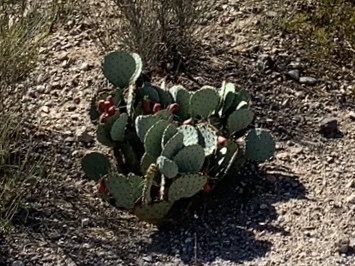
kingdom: Plantae
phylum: Tracheophyta
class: Magnoliopsida
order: Caryophyllales
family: Cactaceae
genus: Opuntia
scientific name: Opuntia engelmannii
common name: Cactus-apple
